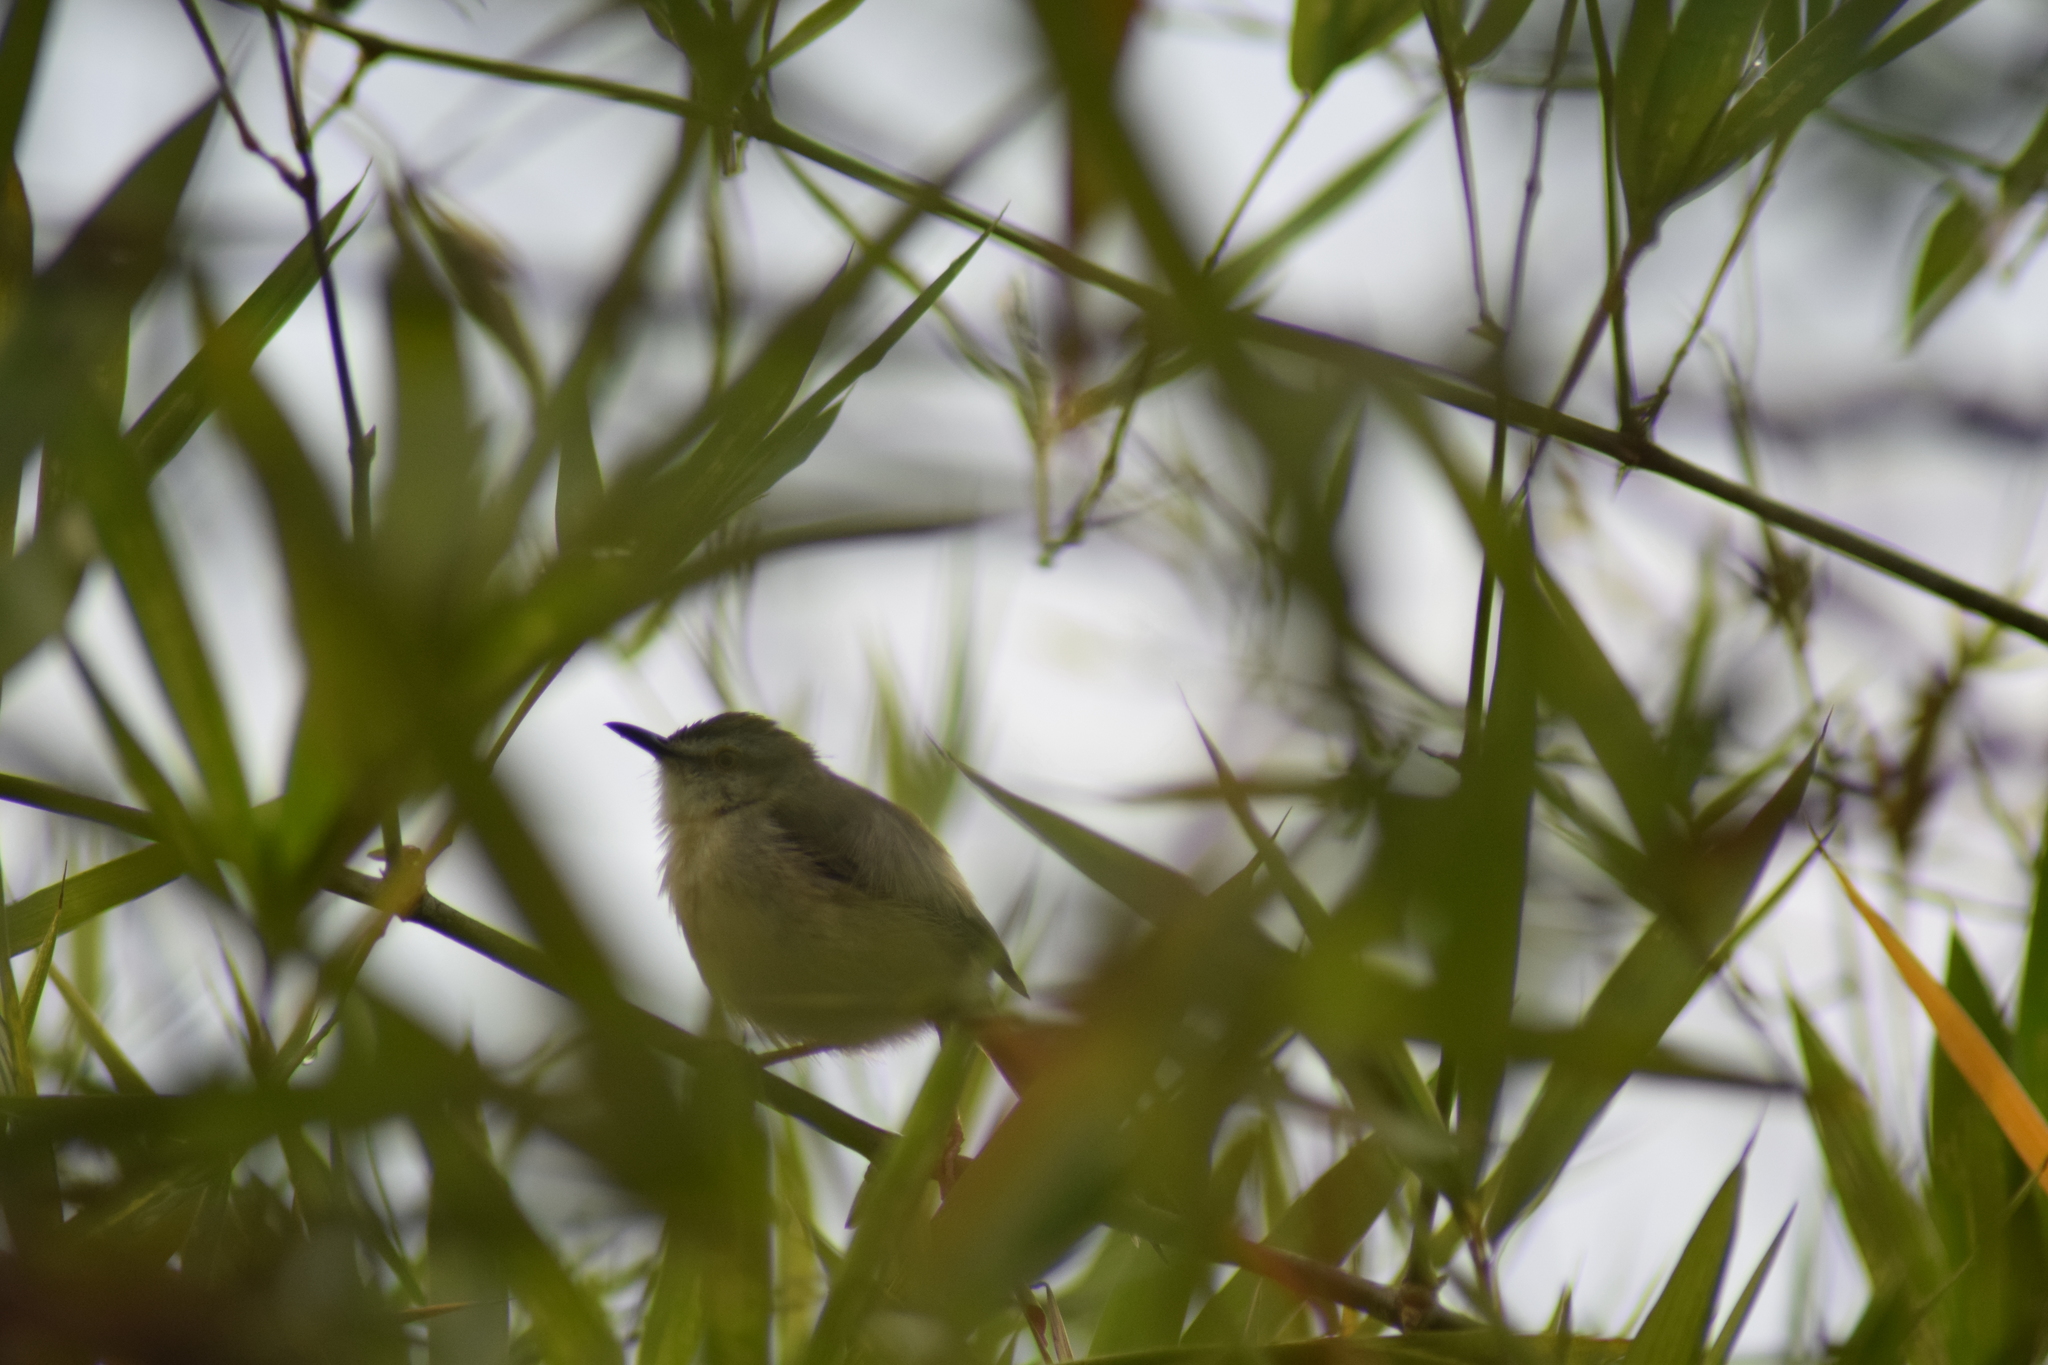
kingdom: Animalia
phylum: Chordata
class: Aves
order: Passeriformes
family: Cisticolidae
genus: Prinia
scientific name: Prinia inornata
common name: Plain prinia
